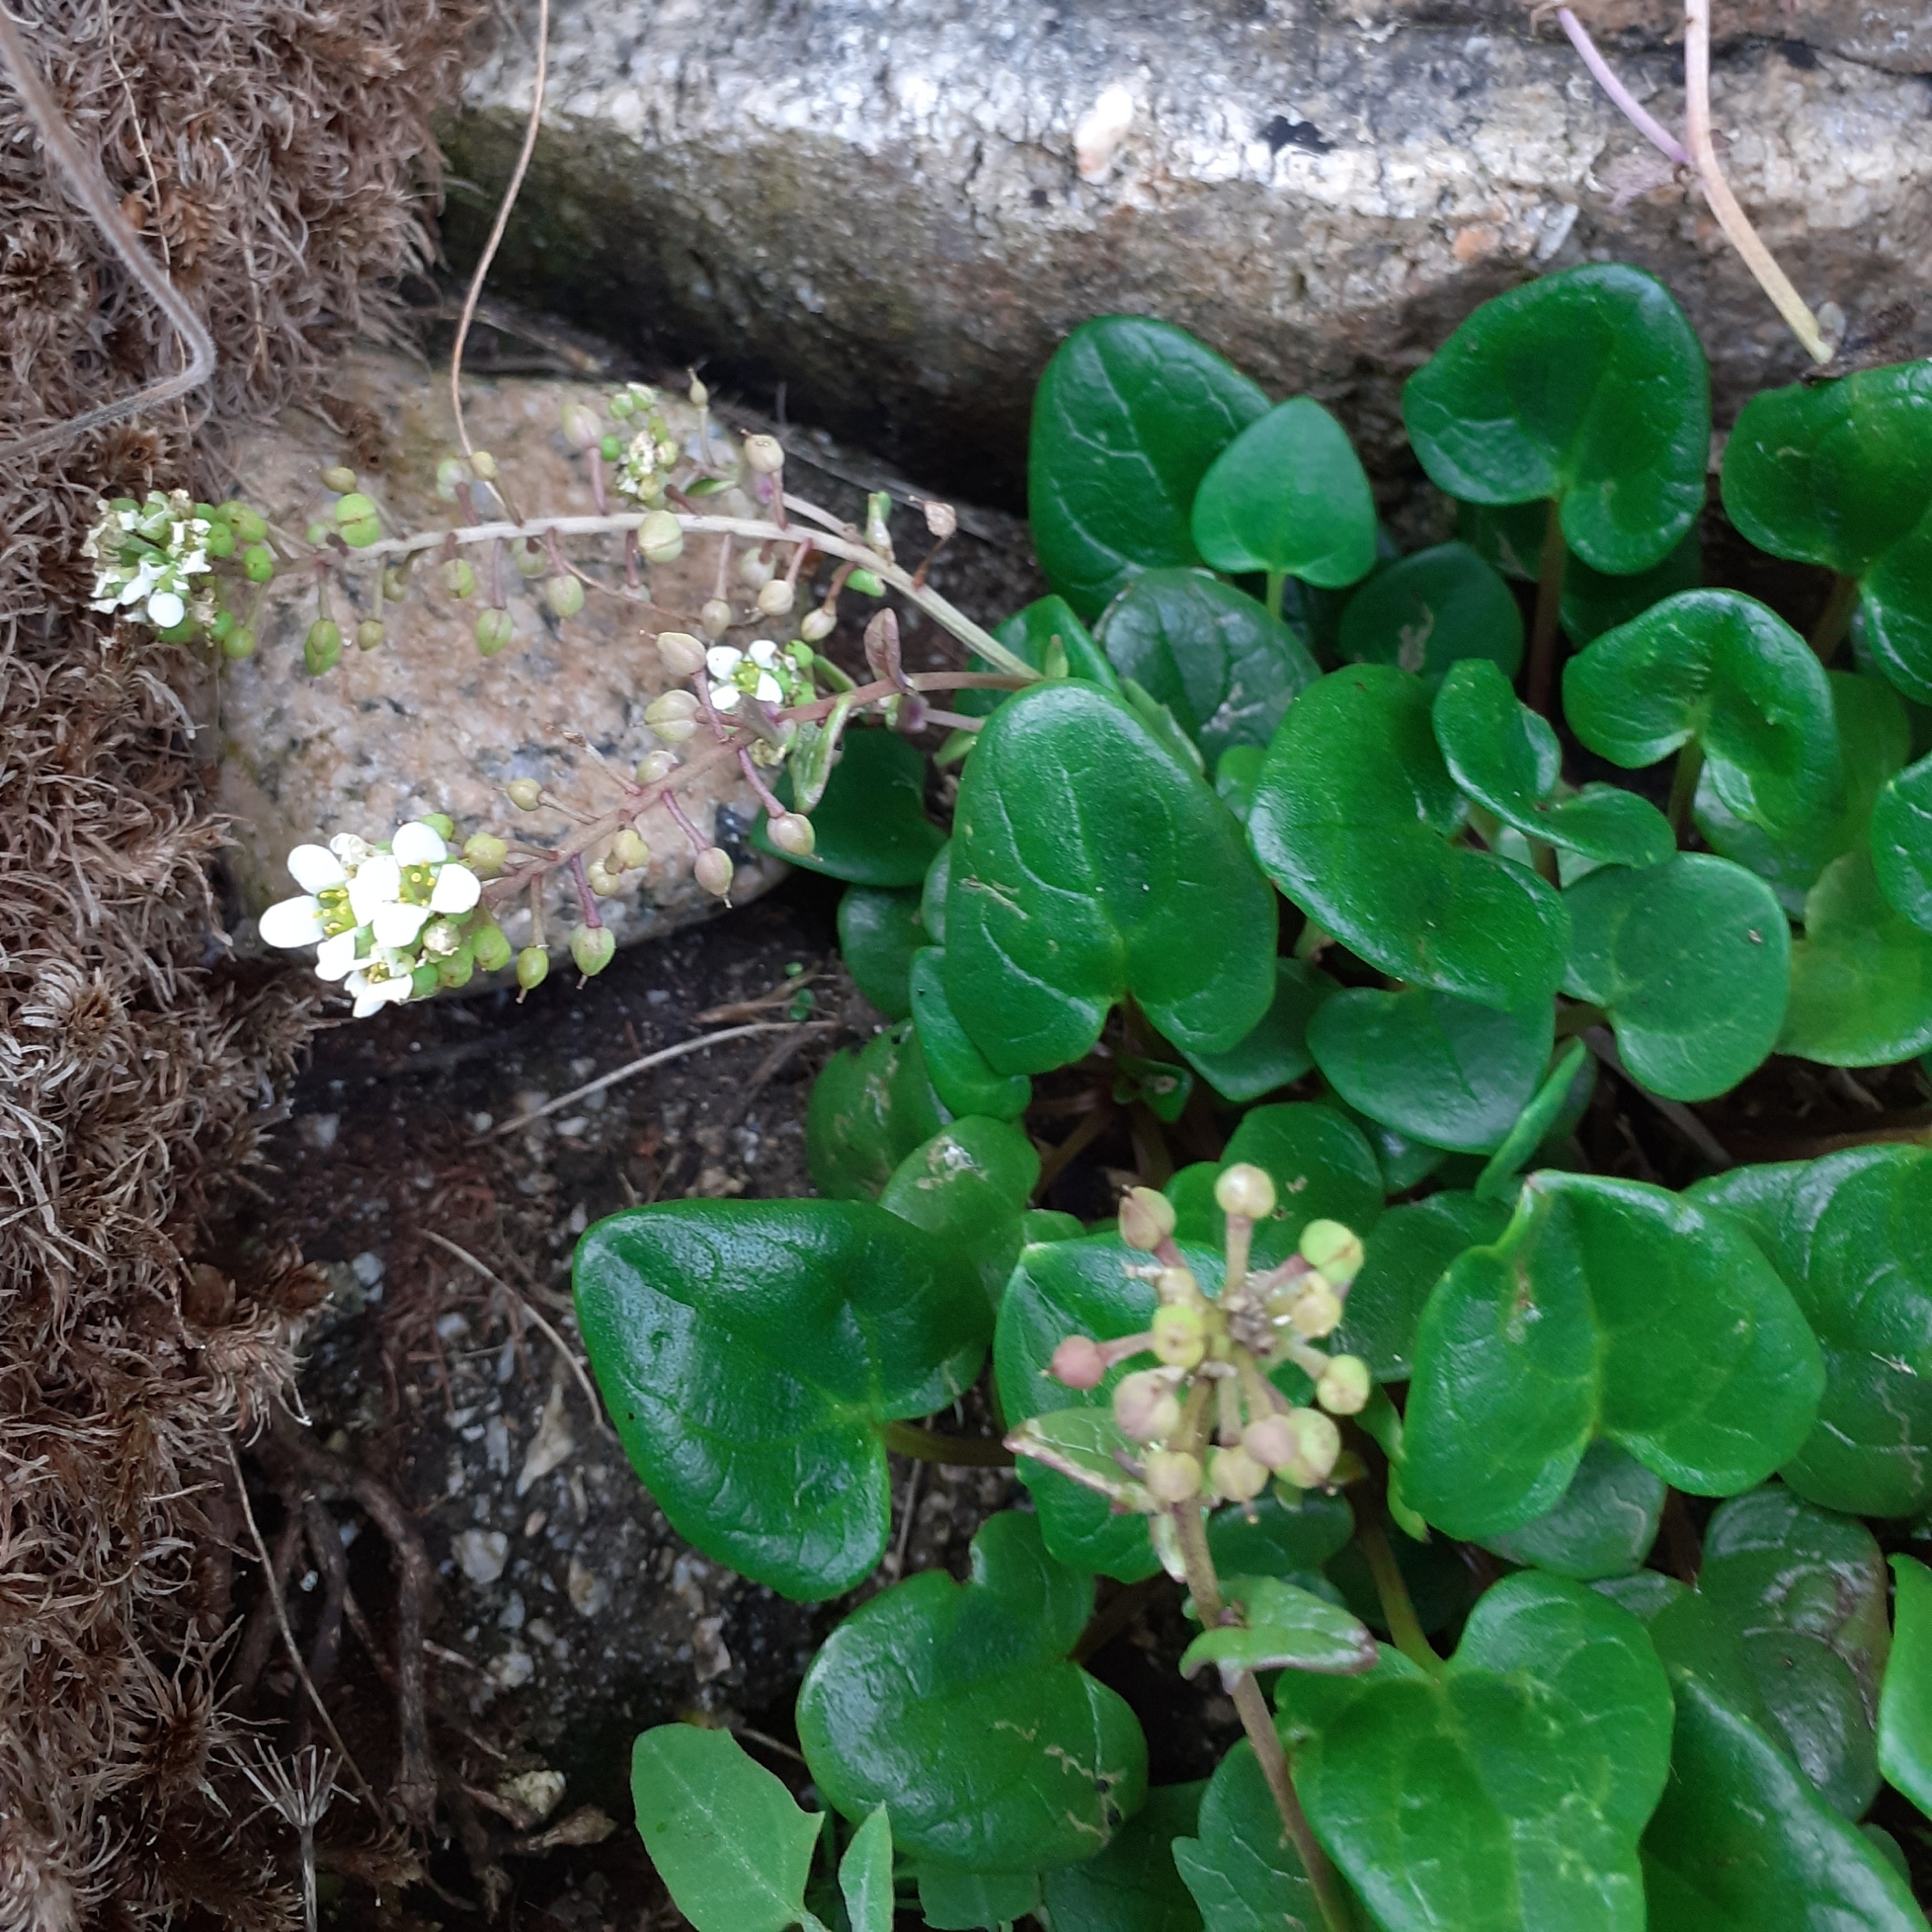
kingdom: Plantae
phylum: Tracheophyta
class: Magnoliopsida
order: Brassicales
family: Brassicaceae
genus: Cochlearia
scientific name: Cochlearia officinalis
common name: Scurvy-grass
